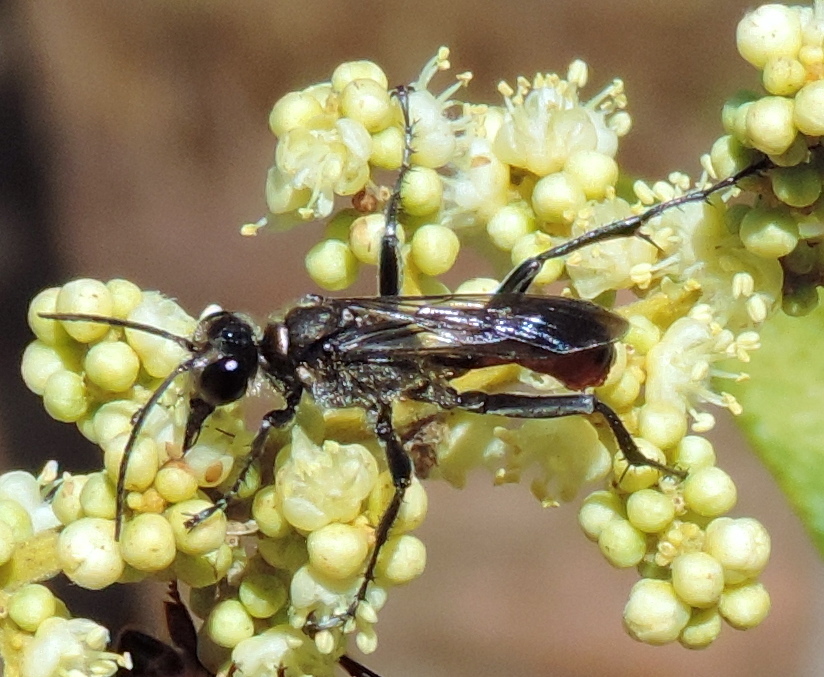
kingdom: Animalia
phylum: Arthropoda
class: Insecta
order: Hymenoptera
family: Sphecidae
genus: Prionyx
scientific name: Prionyx
